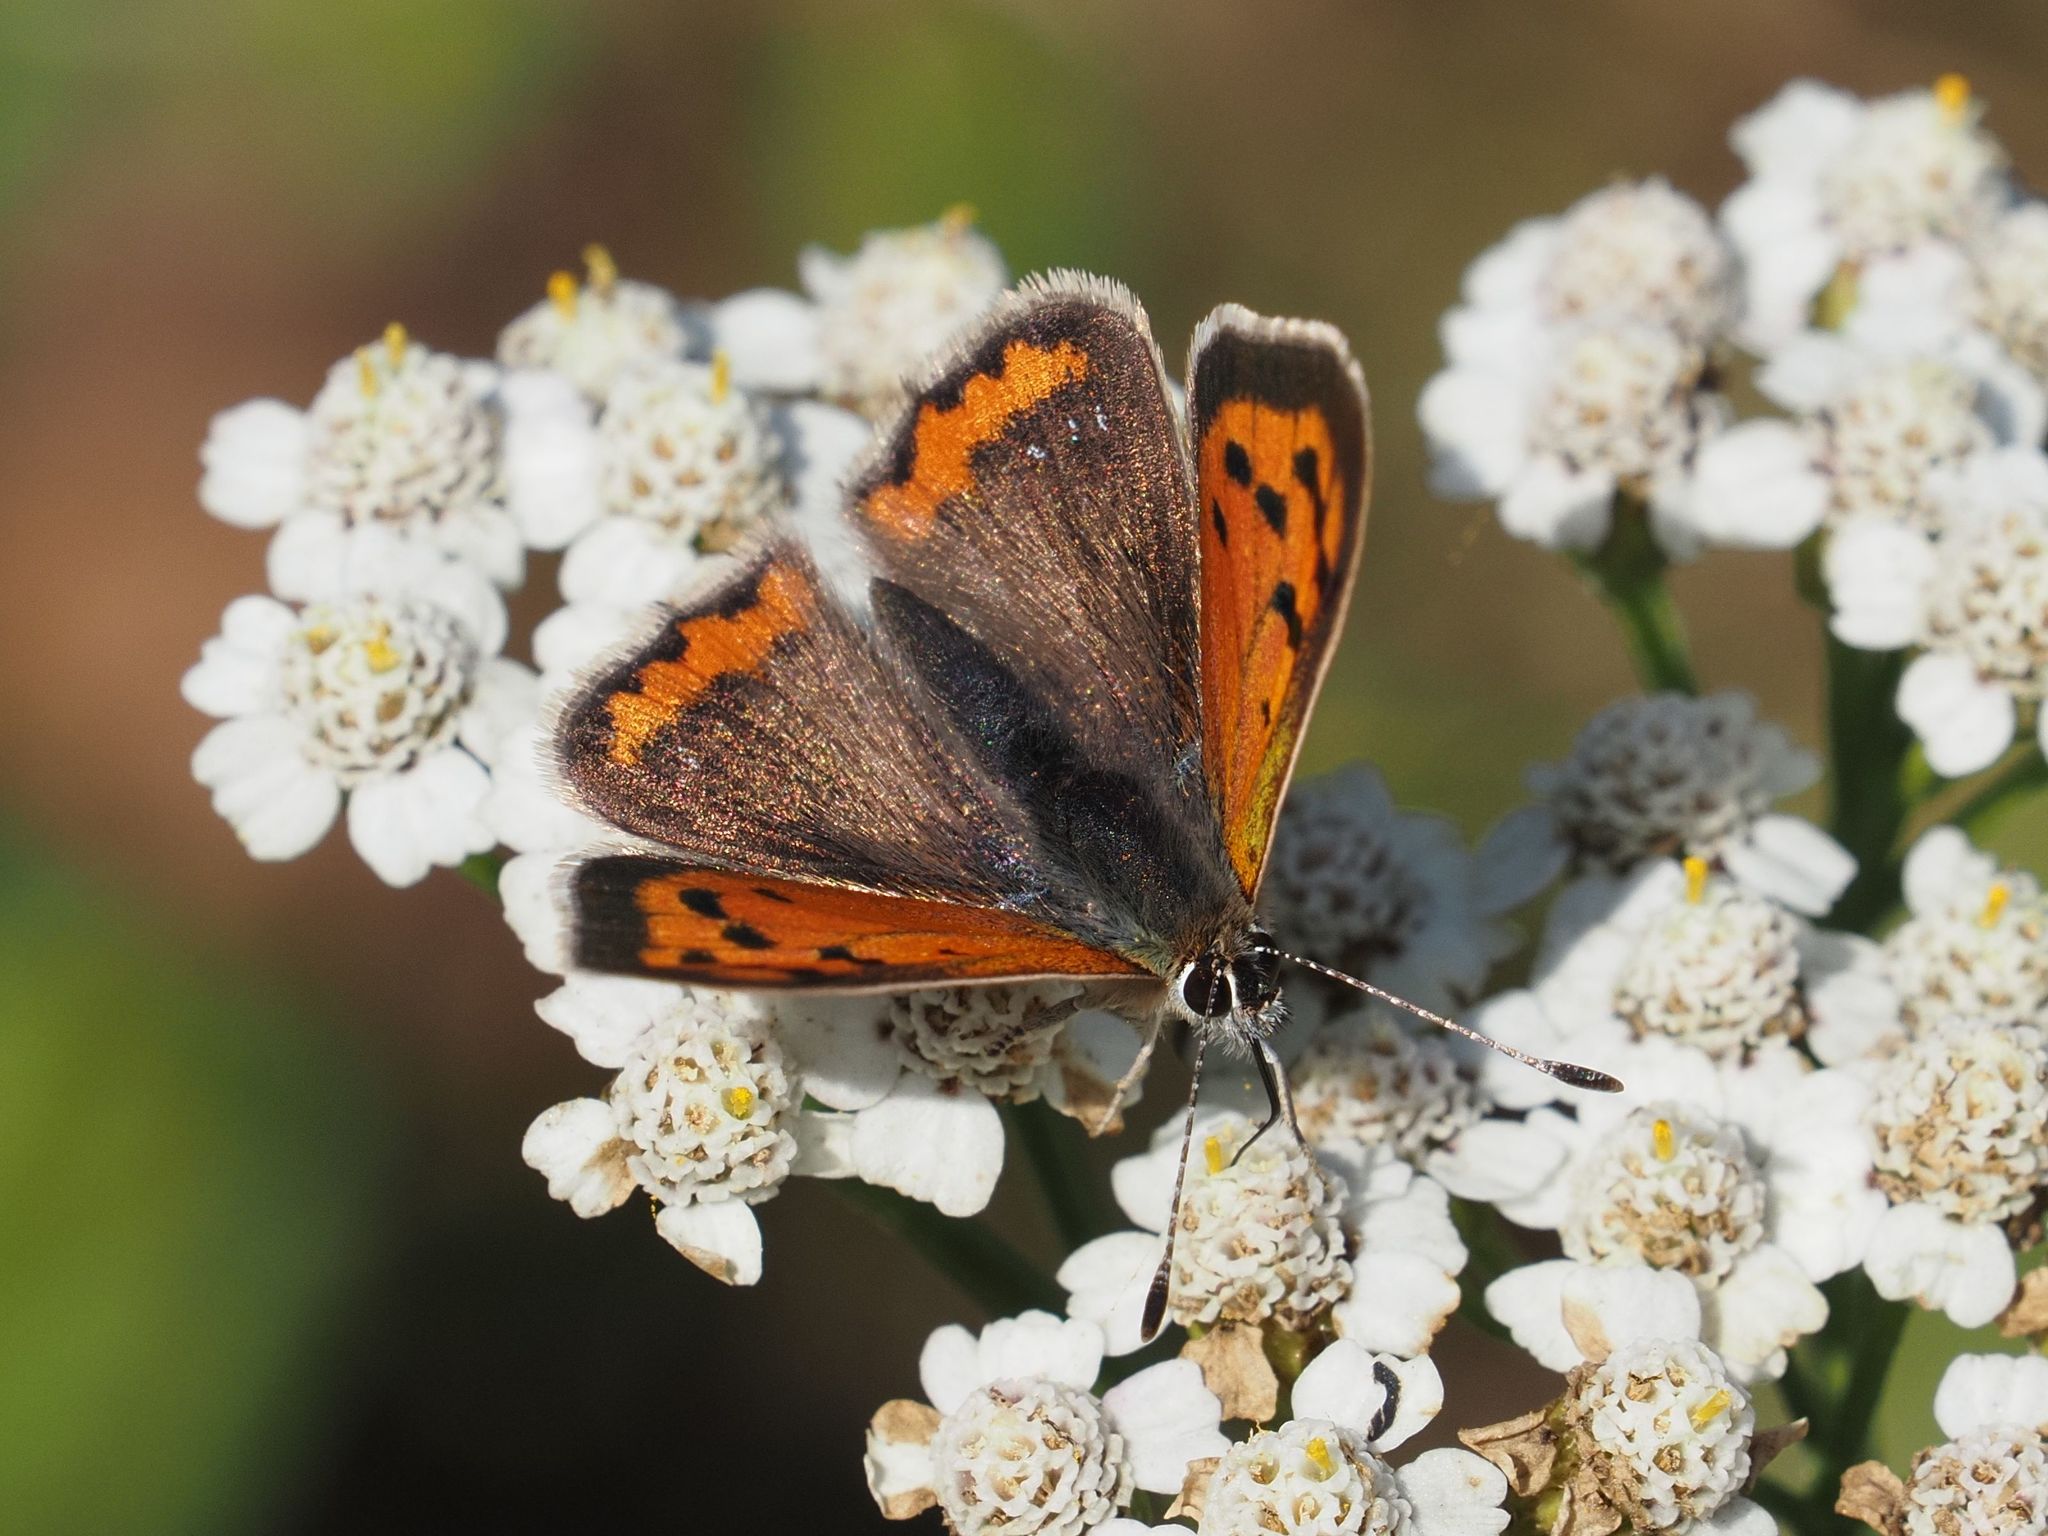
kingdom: Animalia
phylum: Arthropoda
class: Insecta
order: Lepidoptera
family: Lycaenidae
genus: Lycaena
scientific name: Lycaena phlaeas
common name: Small copper
